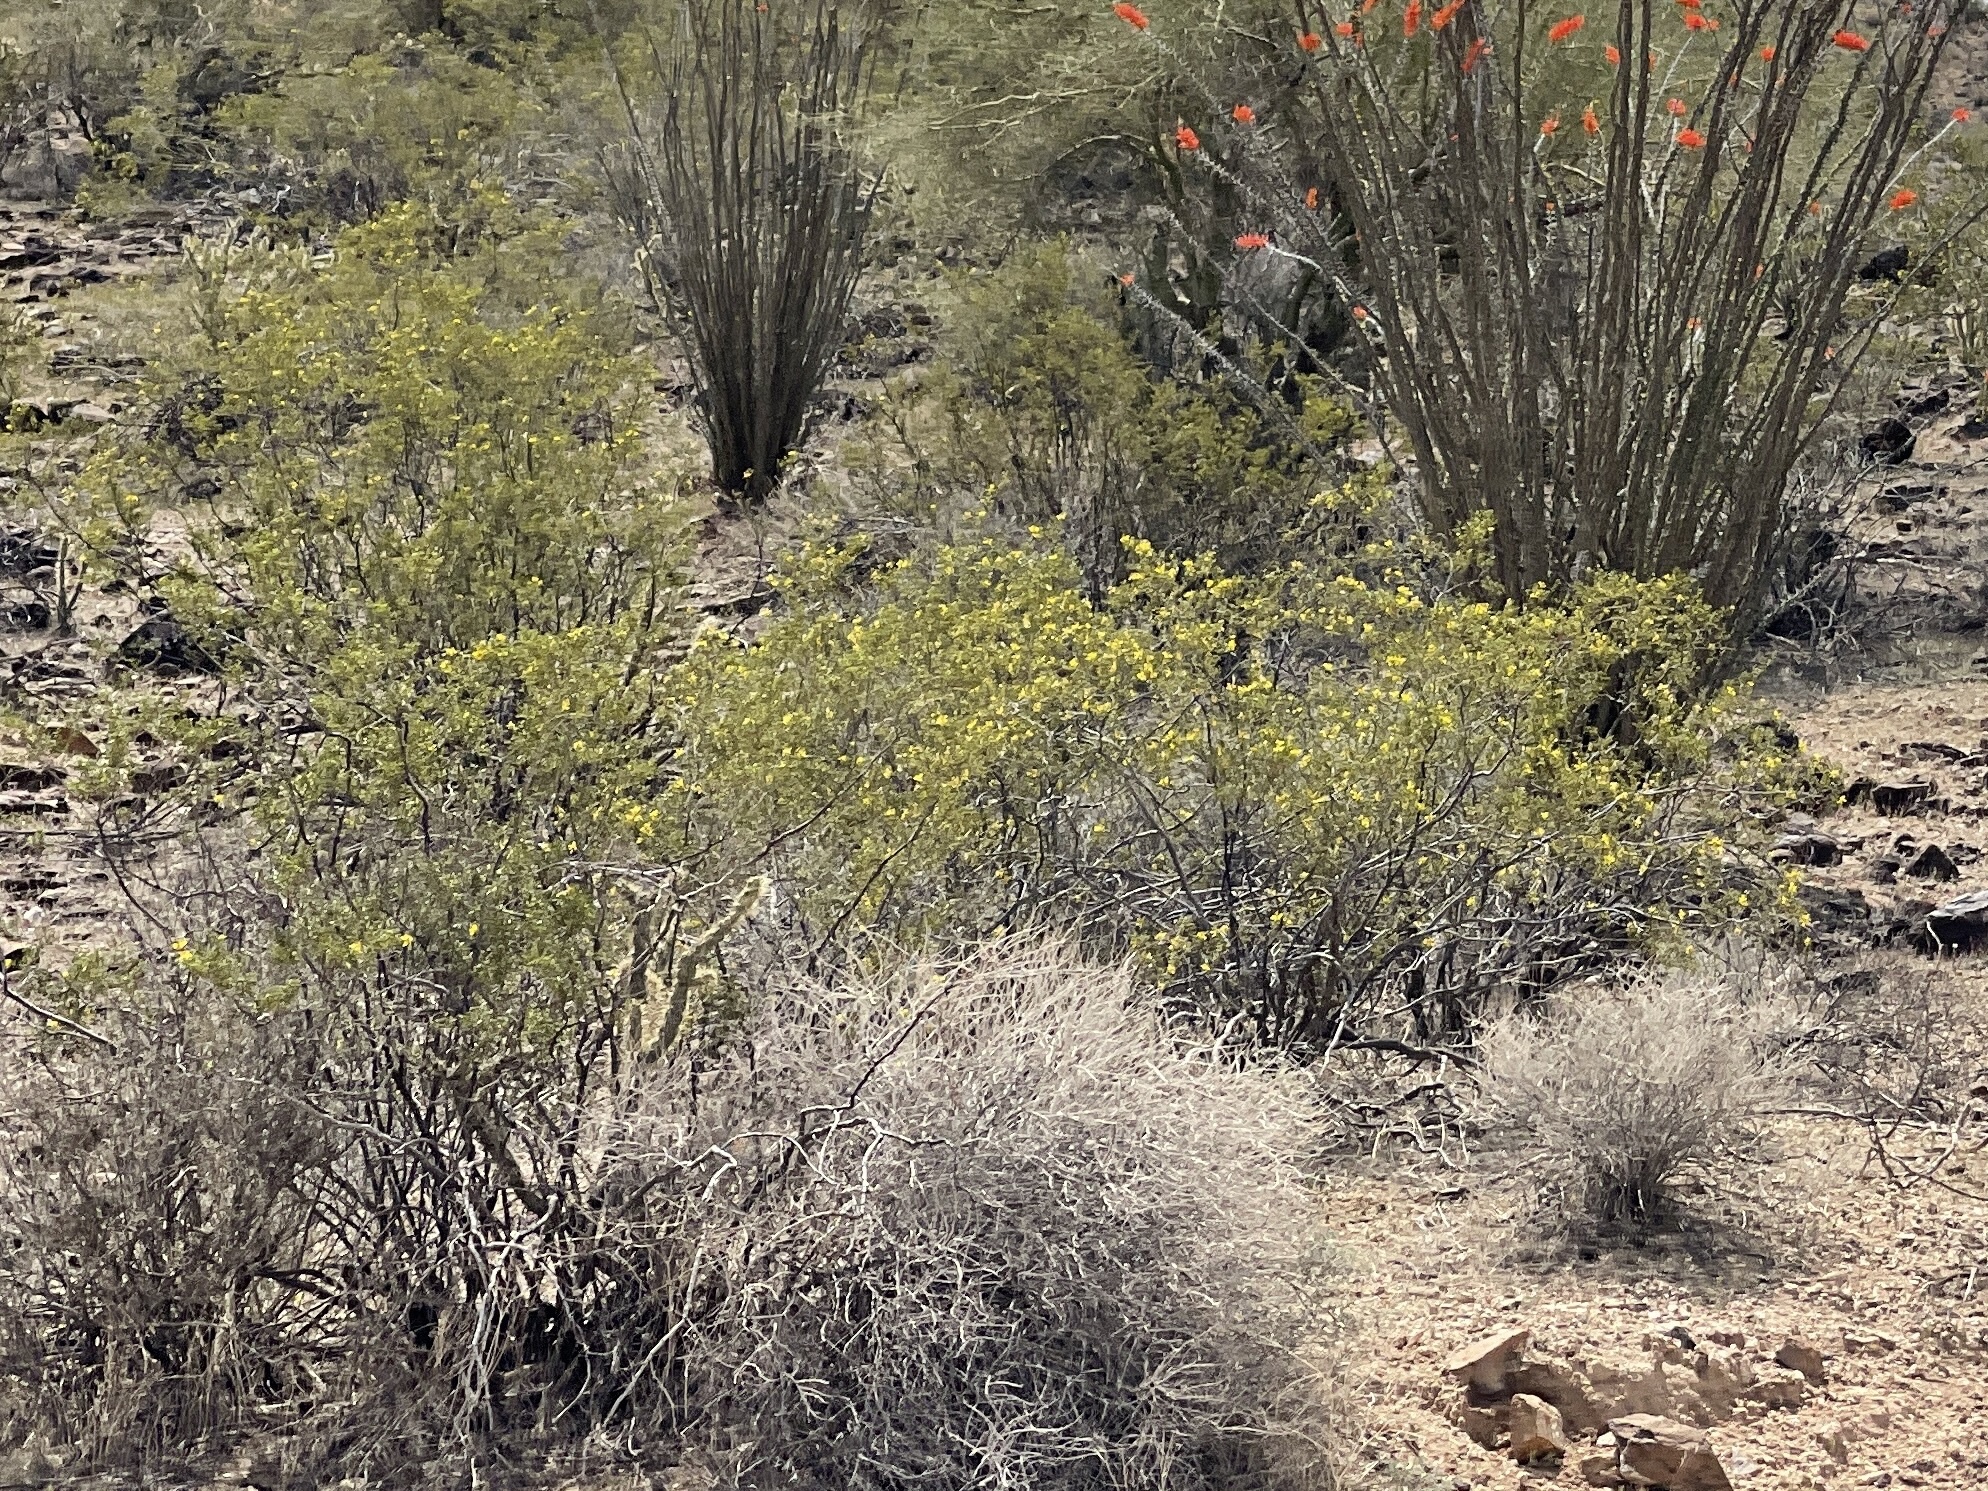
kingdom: Plantae
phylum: Tracheophyta
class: Magnoliopsida
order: Zygophyllales
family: Zygophyllaceae
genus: Larrea
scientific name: Larrea tridentata
